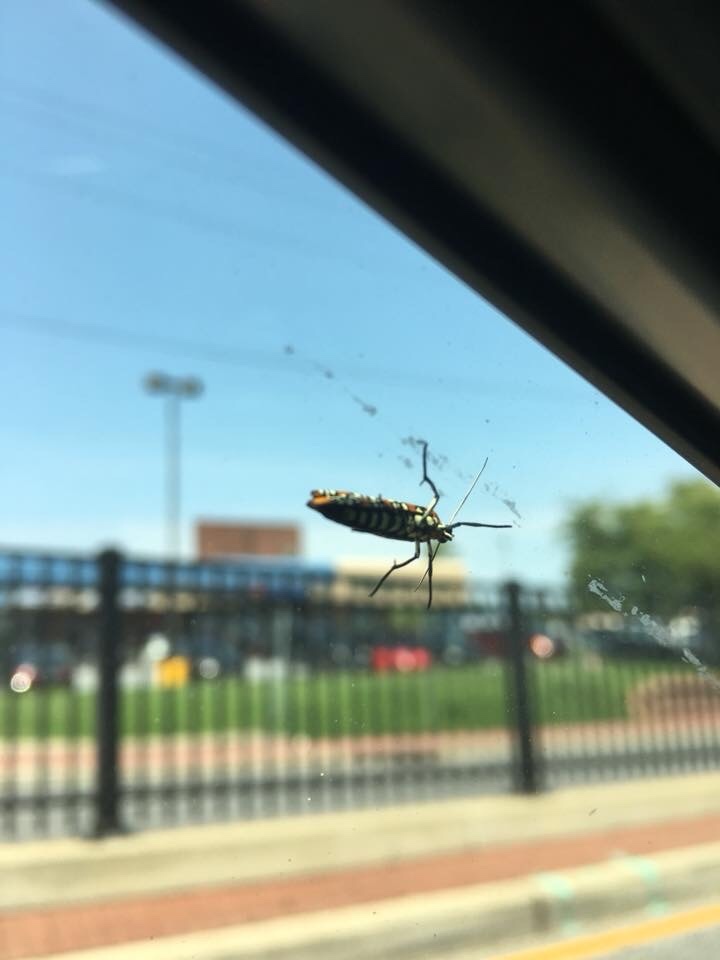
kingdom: Animalia
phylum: Arthropoda
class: Insecta
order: Lepidoptera
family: Attevidae
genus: Atteva
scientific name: Atteva punctella
